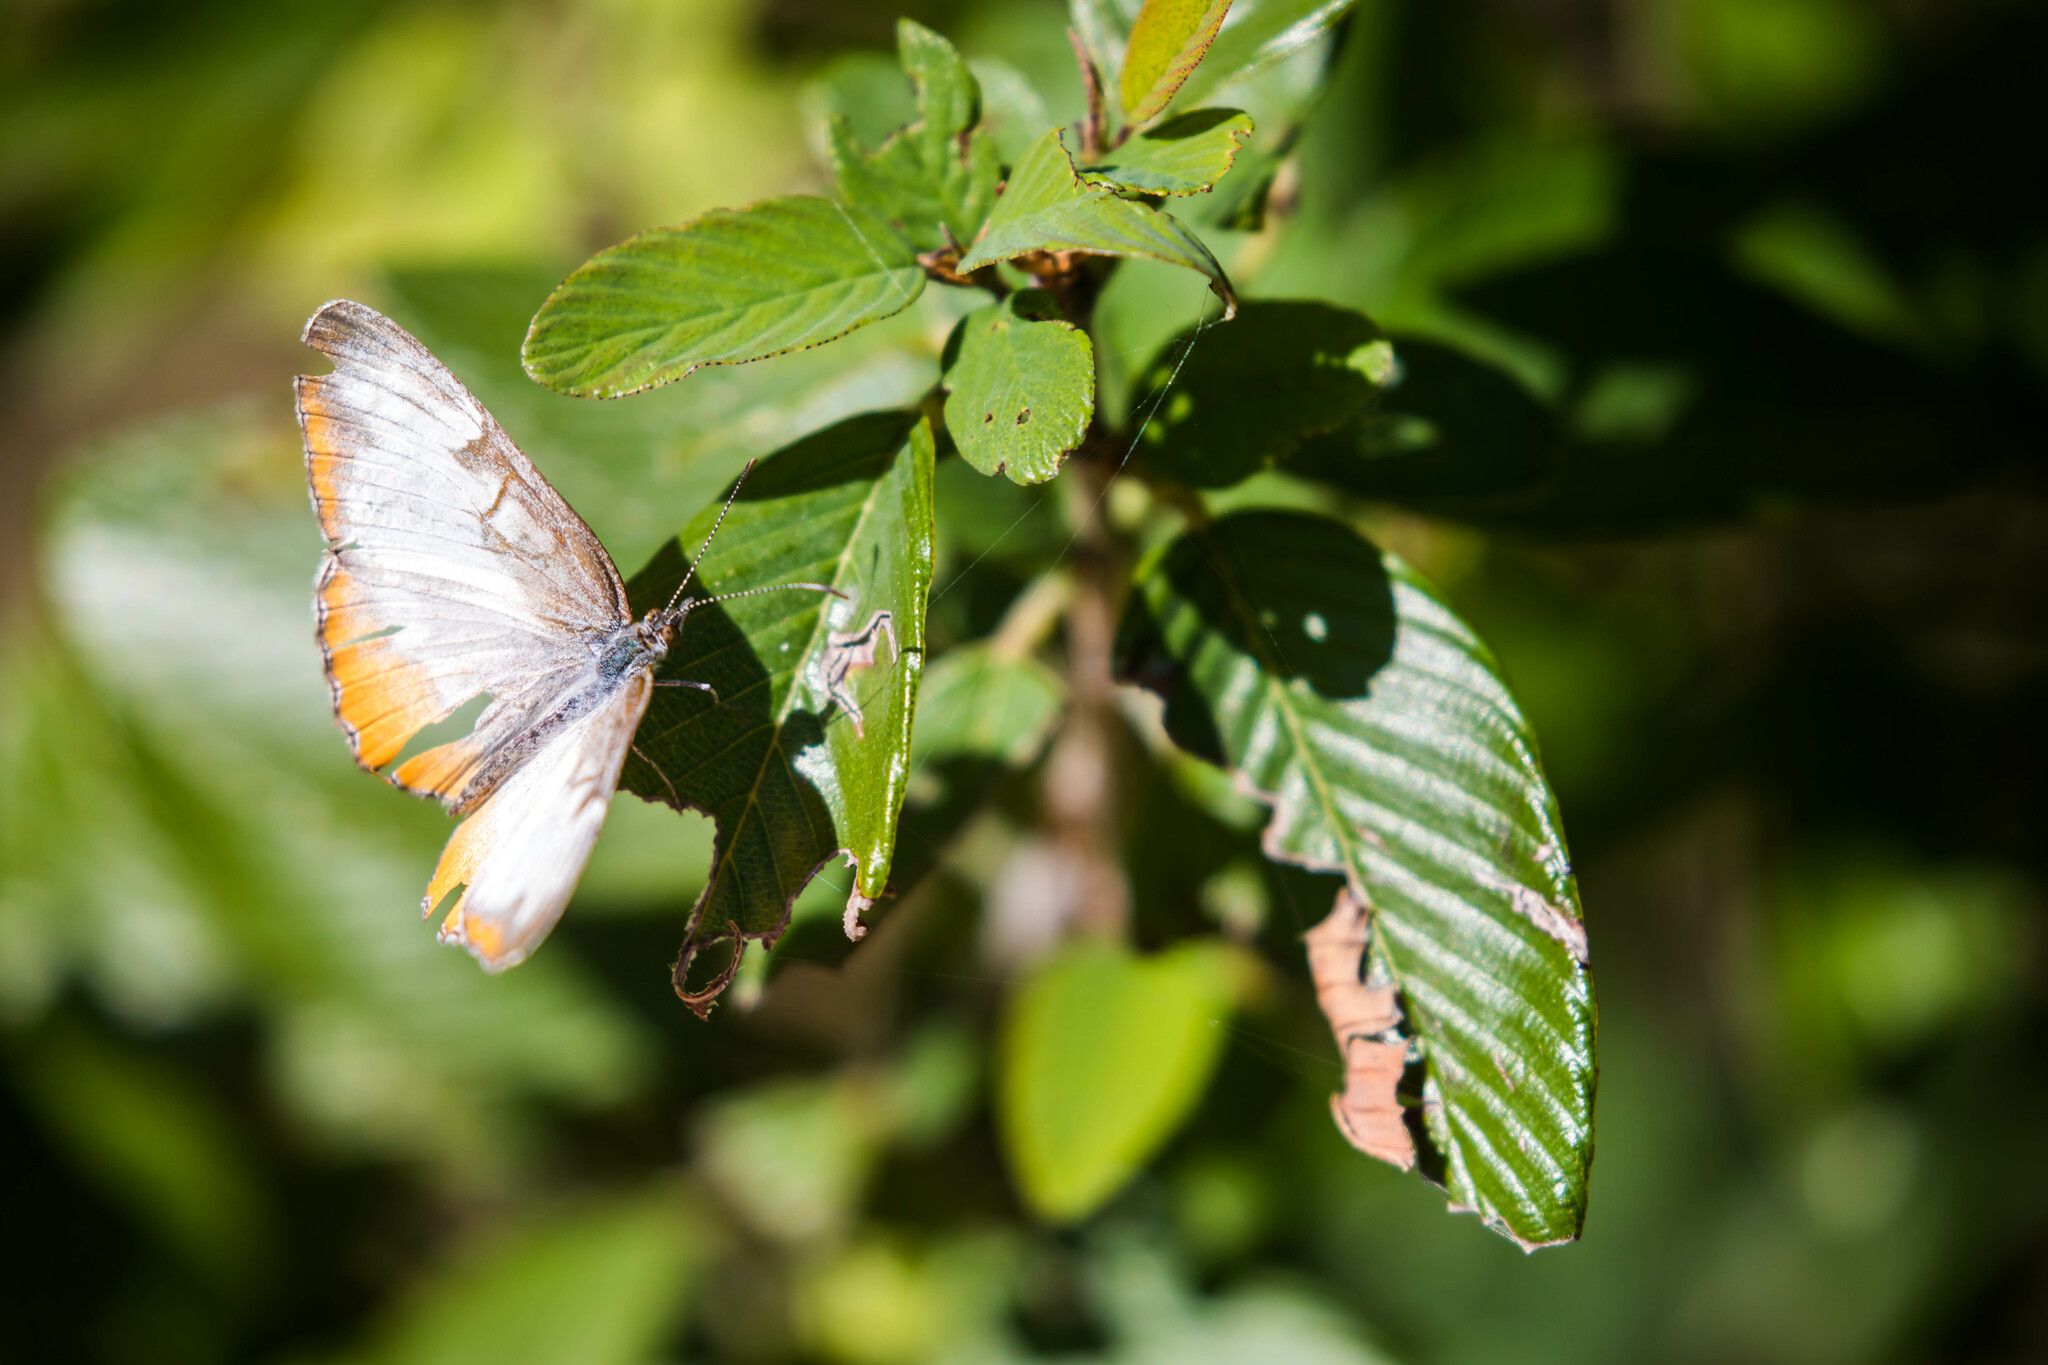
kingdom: Animalia
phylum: Arthropoda
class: Insecta
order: Lepidoptera
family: Nymphalidae
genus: Mestra
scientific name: Mestra amymone
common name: Common mestra
